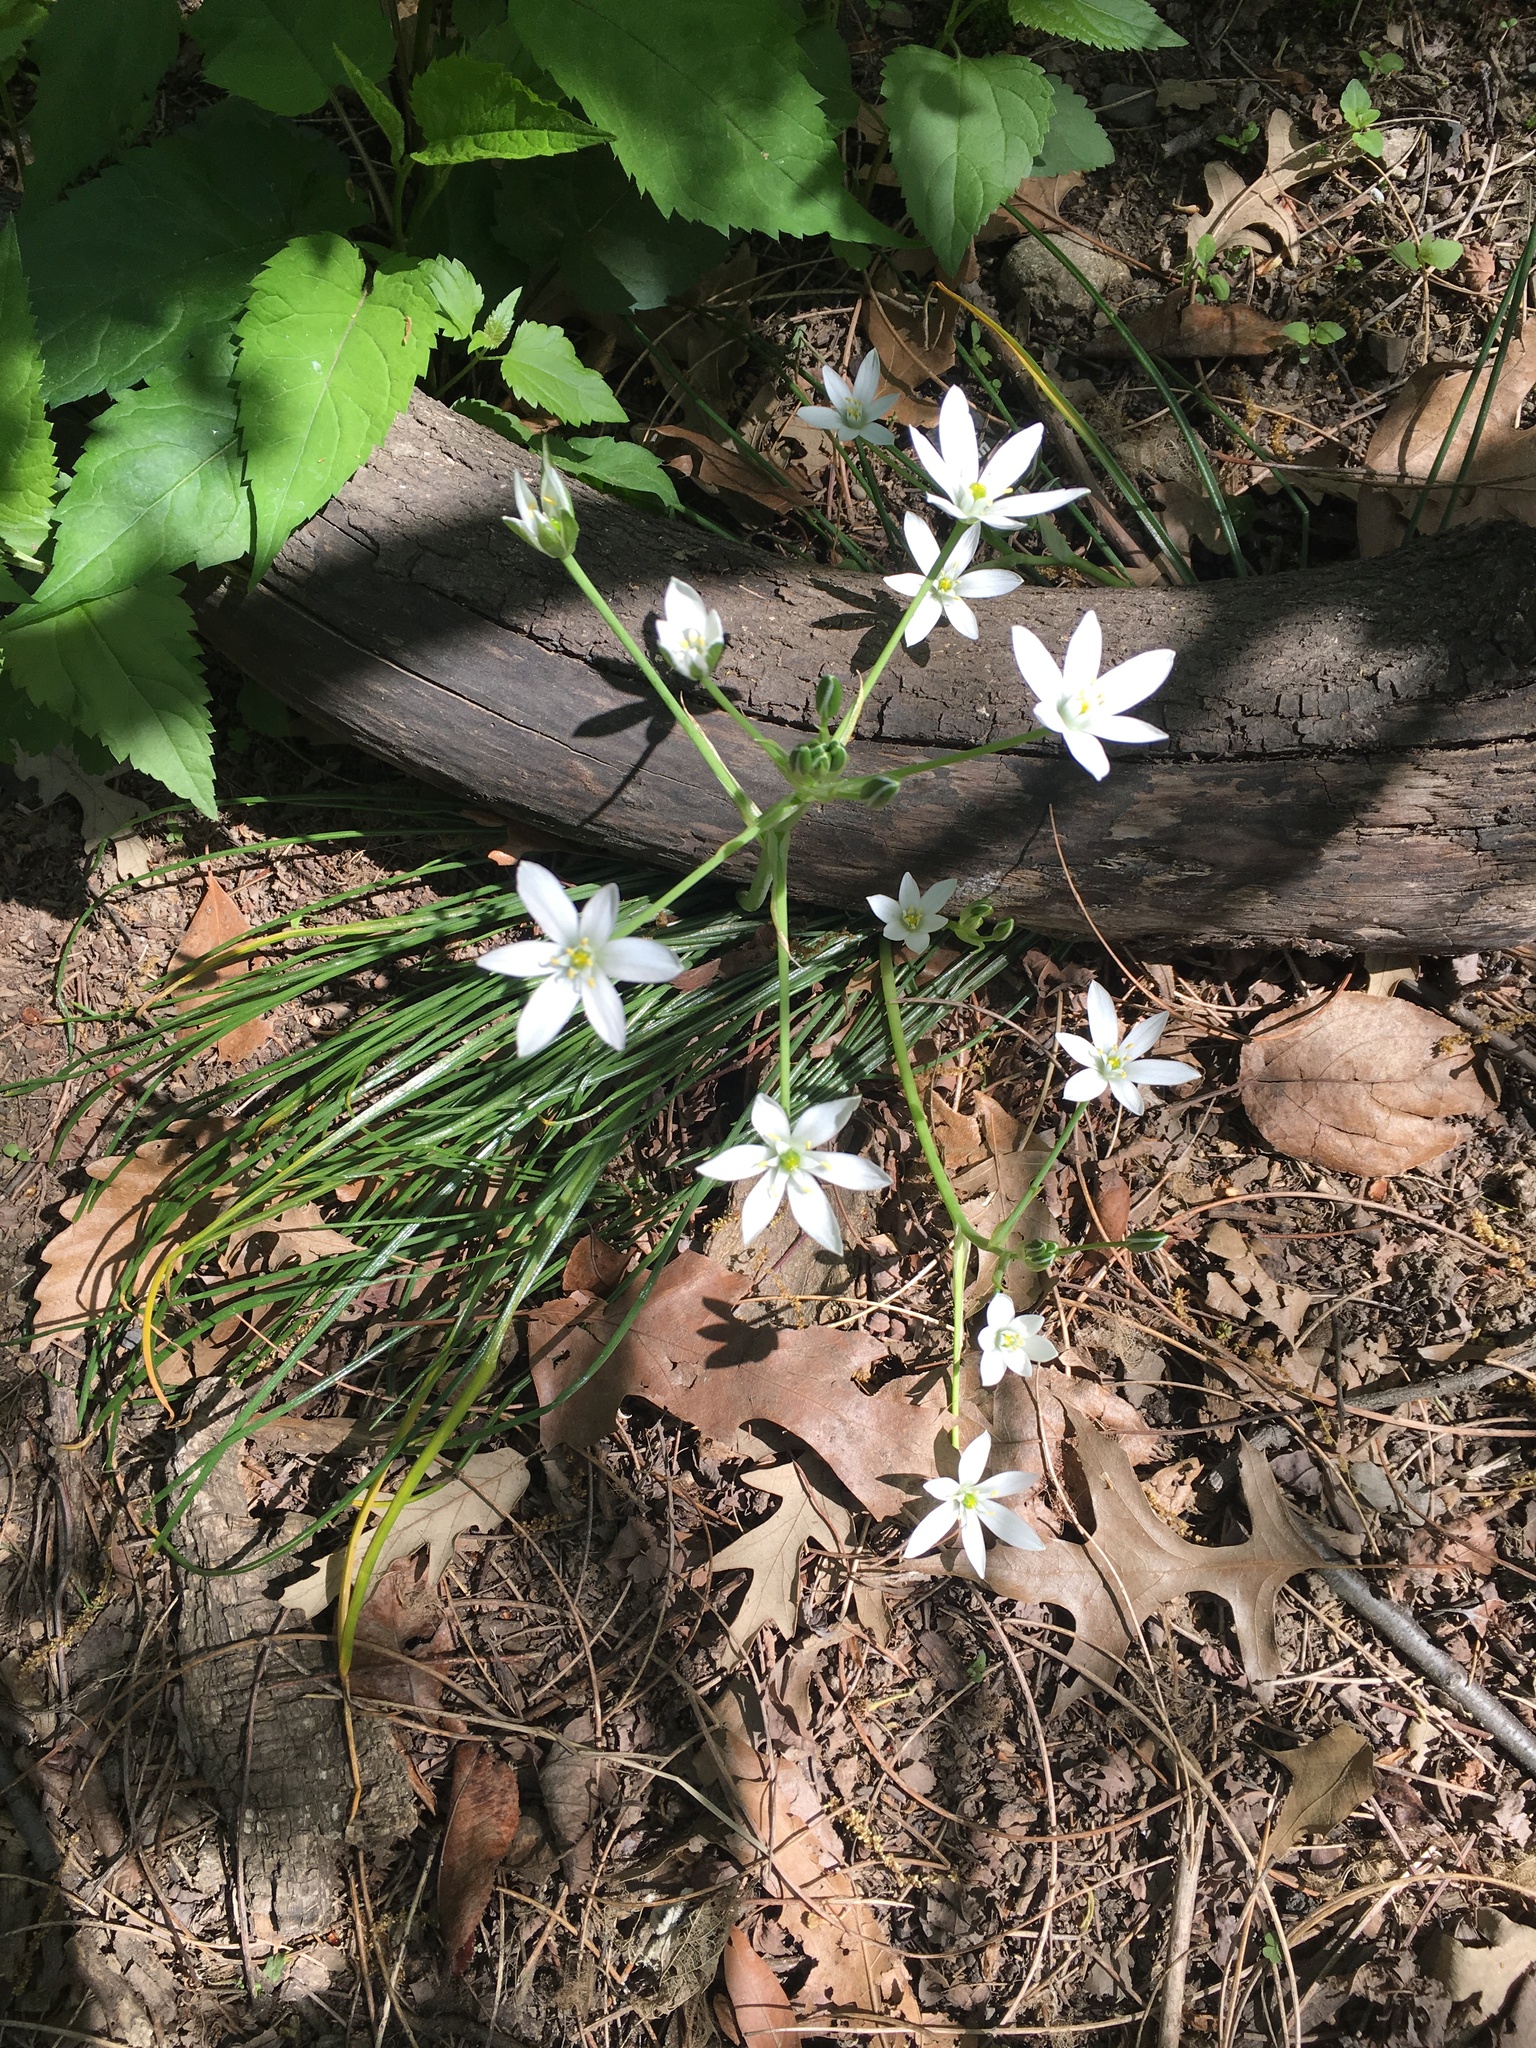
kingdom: Plantae
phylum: Tracheophyta
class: Liliopsida
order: Asparagales
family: Asparagaceae
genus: Ornithogalum
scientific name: Ornithogalum umbellatum
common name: Garden star-of-bethlehem
